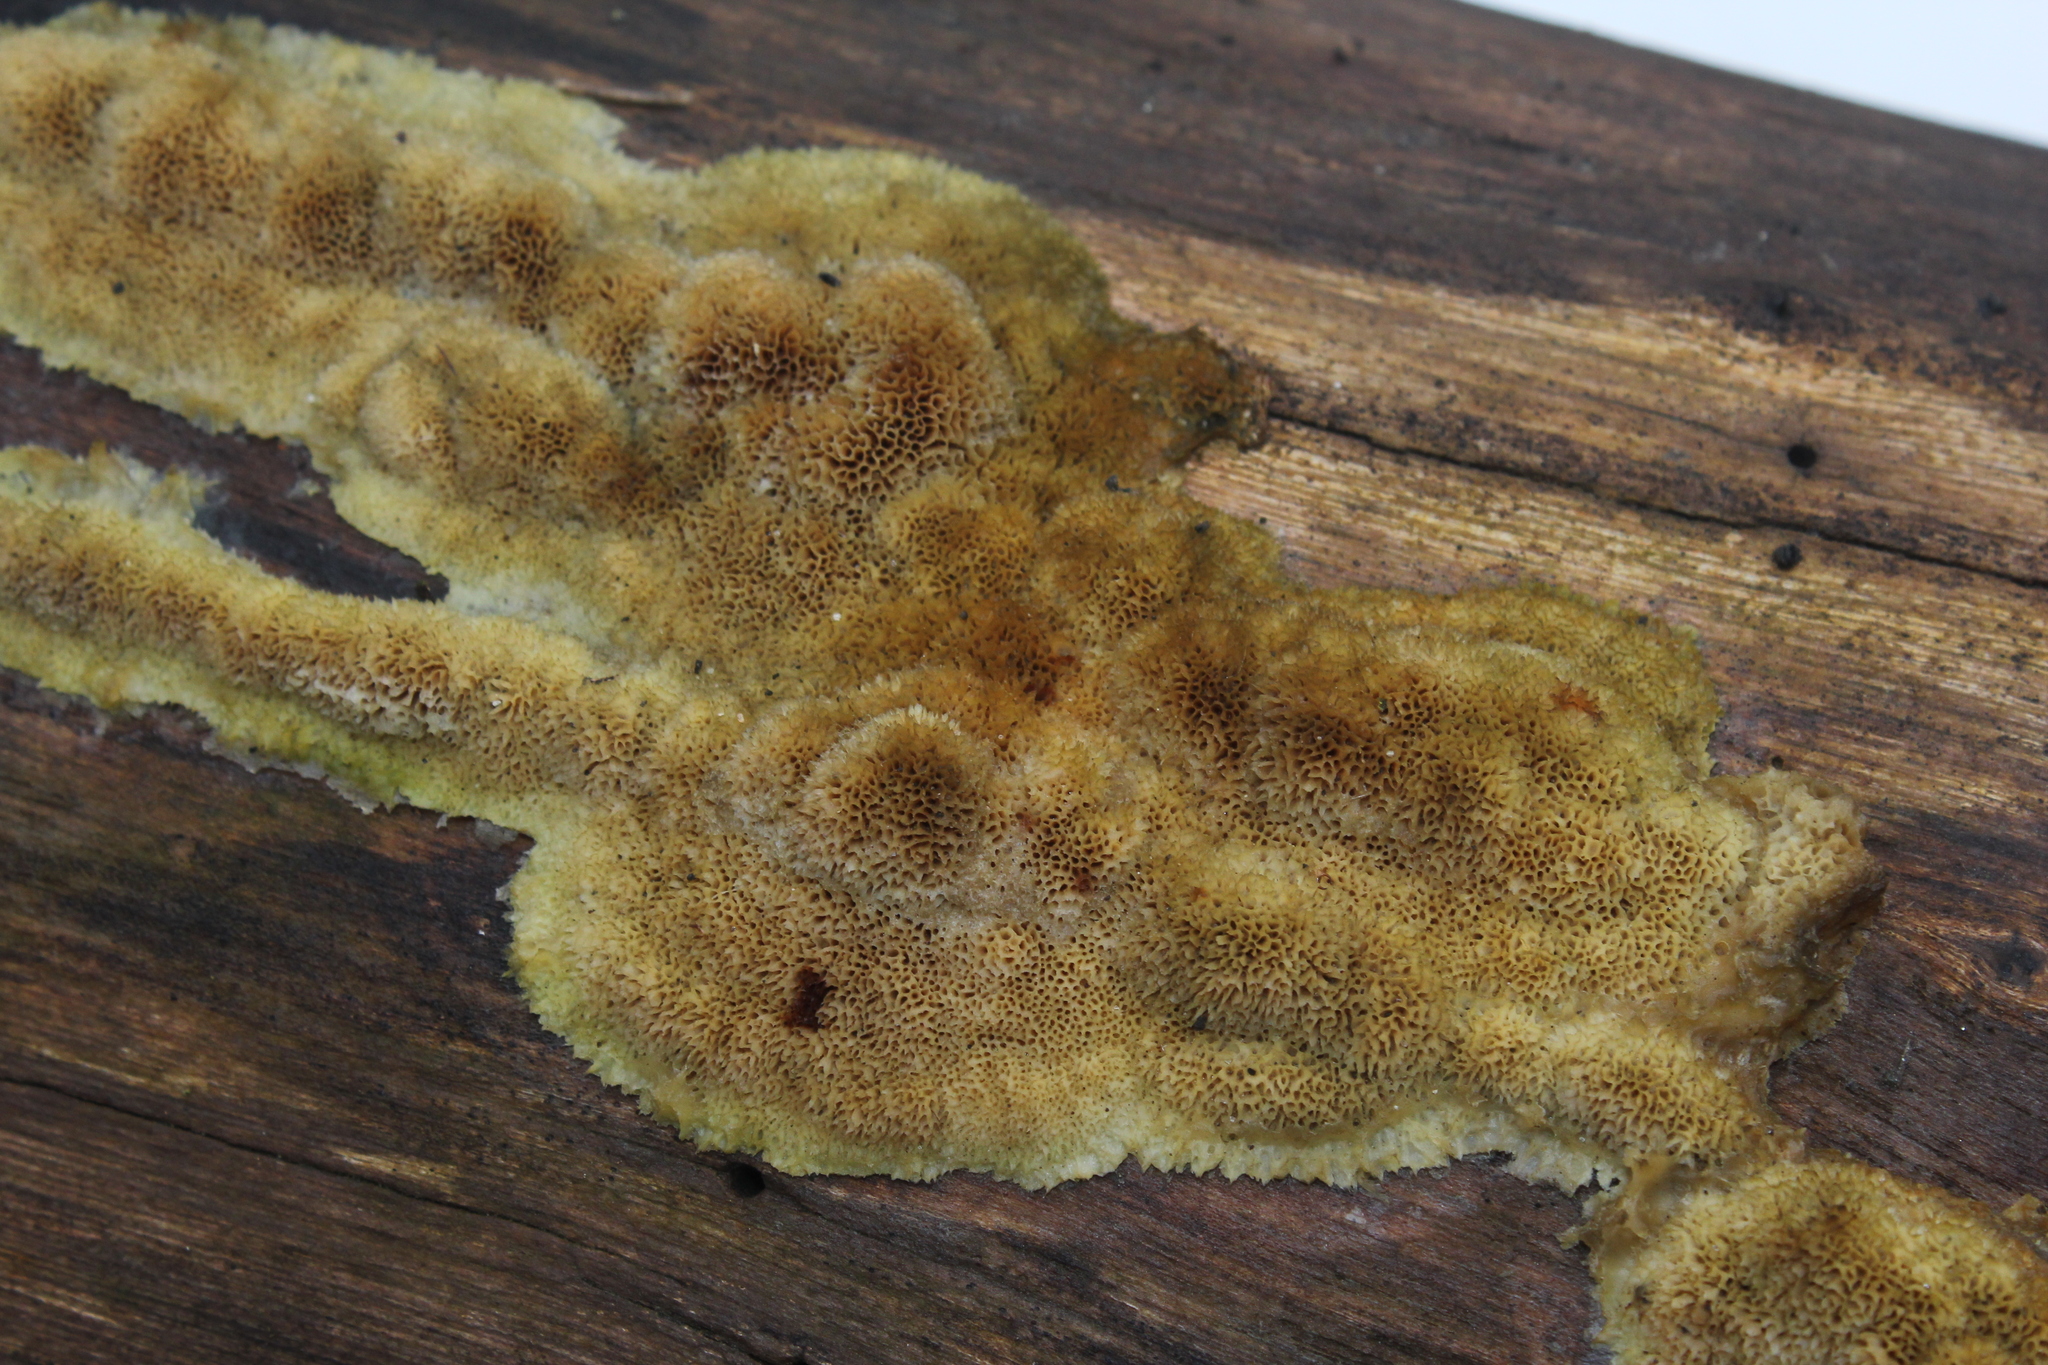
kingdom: Fungi
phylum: Basidiomycota
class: Agaricomycetes
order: Hymenochaetales
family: Schizoporaceae
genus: Schizopora
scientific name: Schizopora paradoxa
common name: Split porecrust
